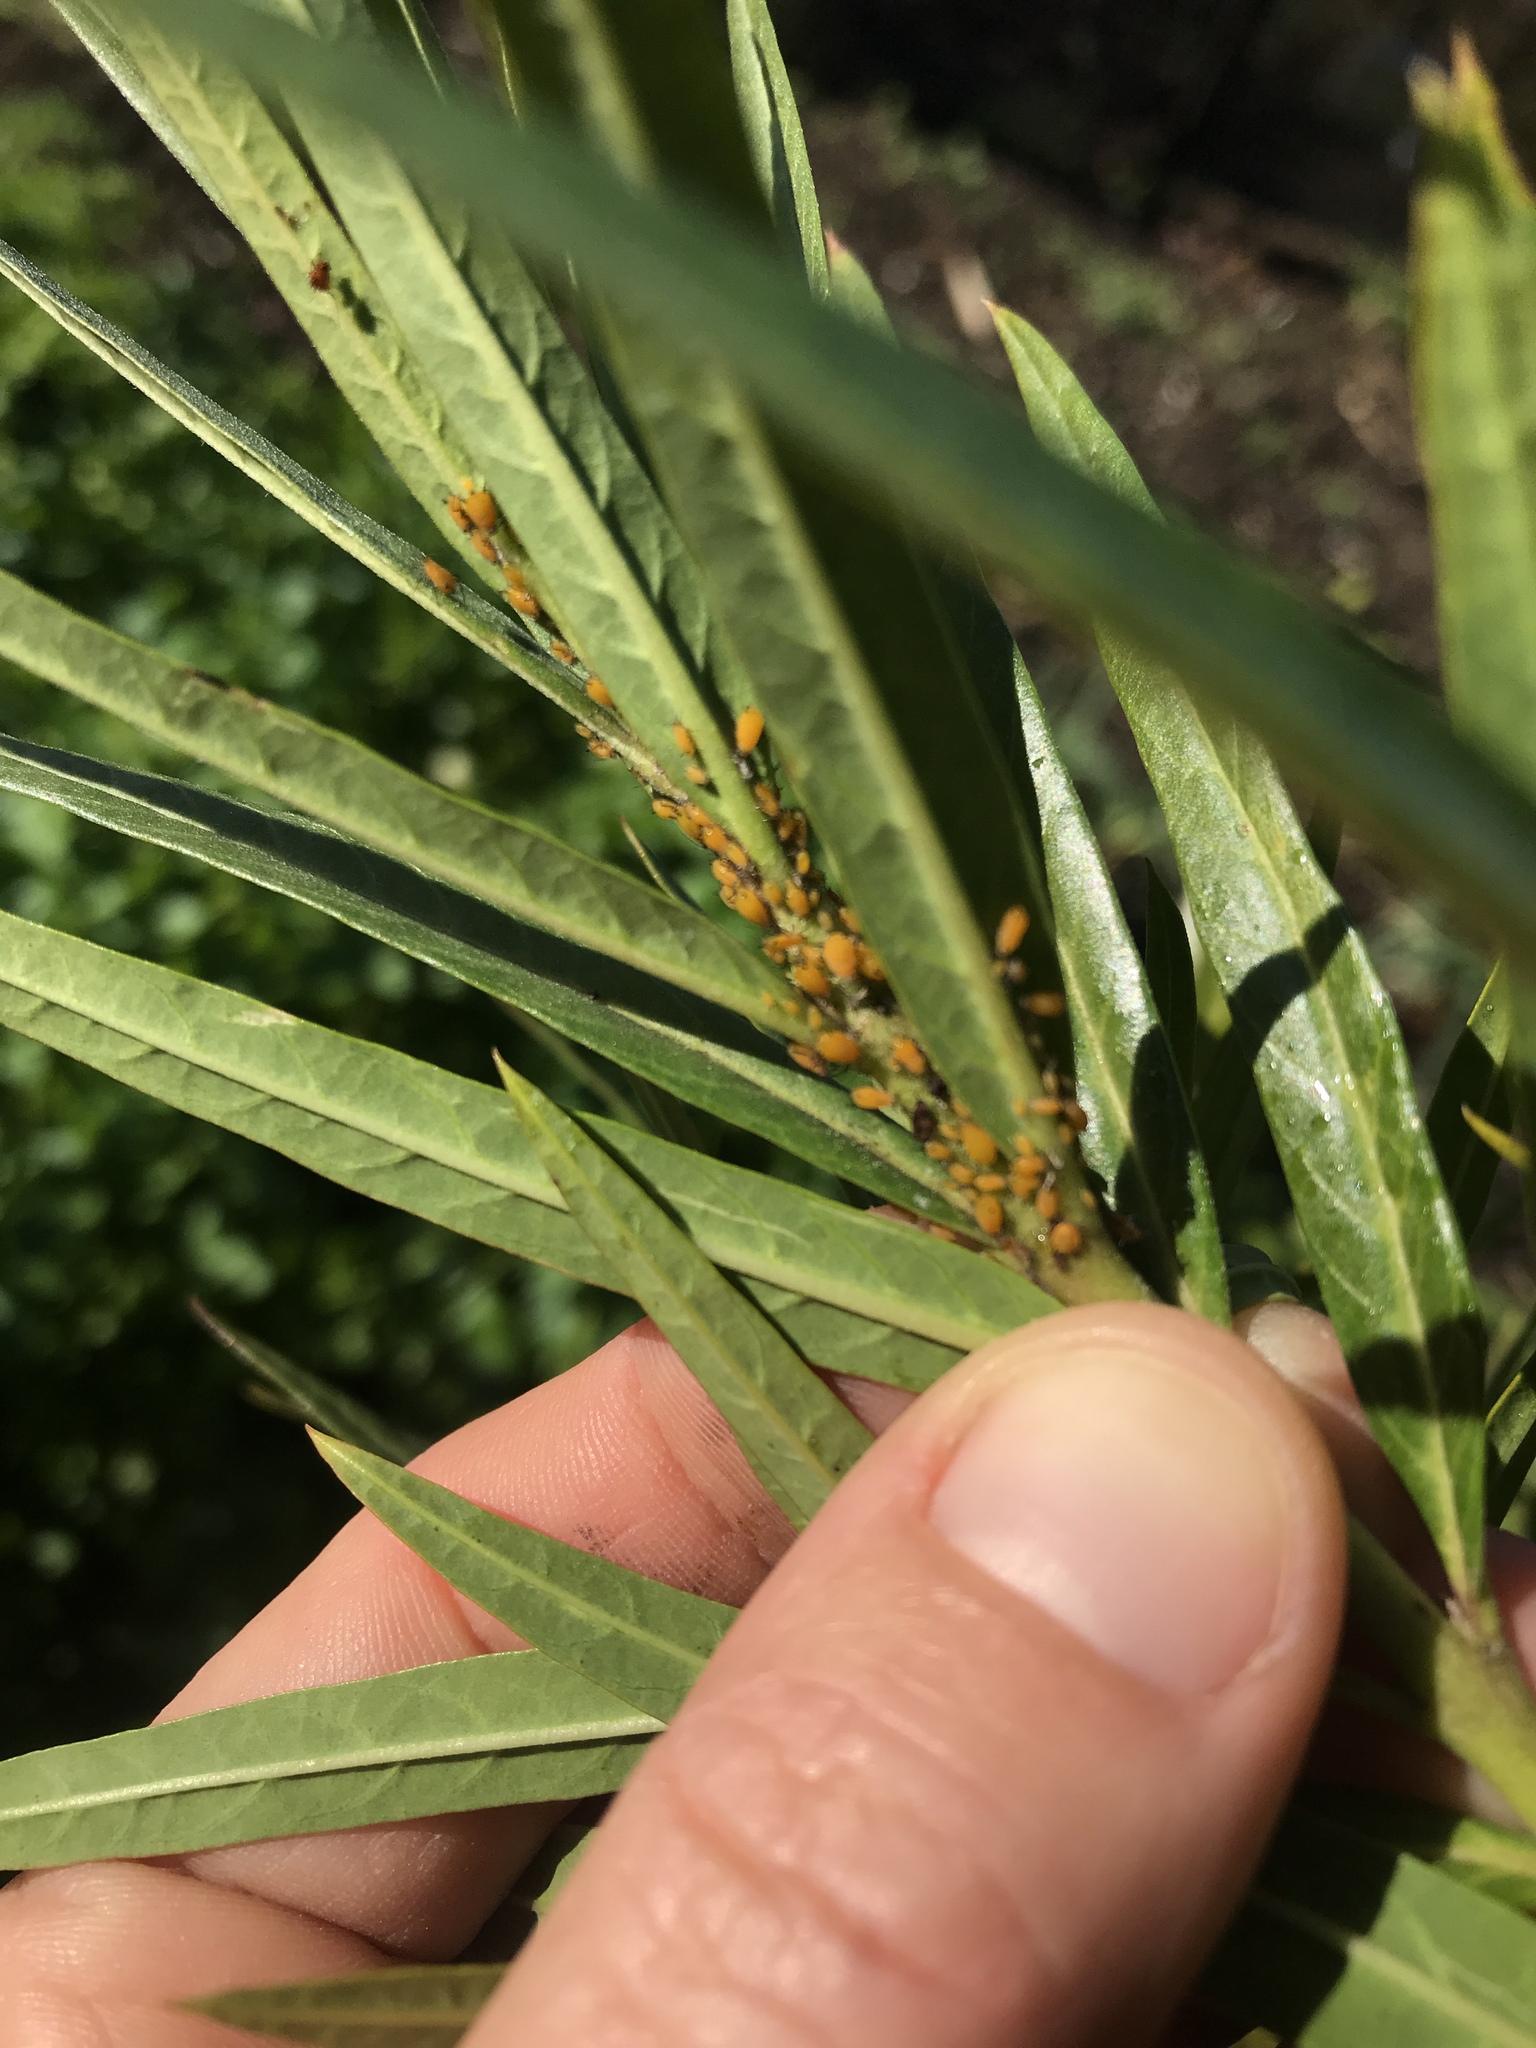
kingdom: Animalia
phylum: Arthropoda
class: Insecta
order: Hemiptera
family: Aphididae
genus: Aphis
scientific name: Aphis nerii
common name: Oleander aphid
